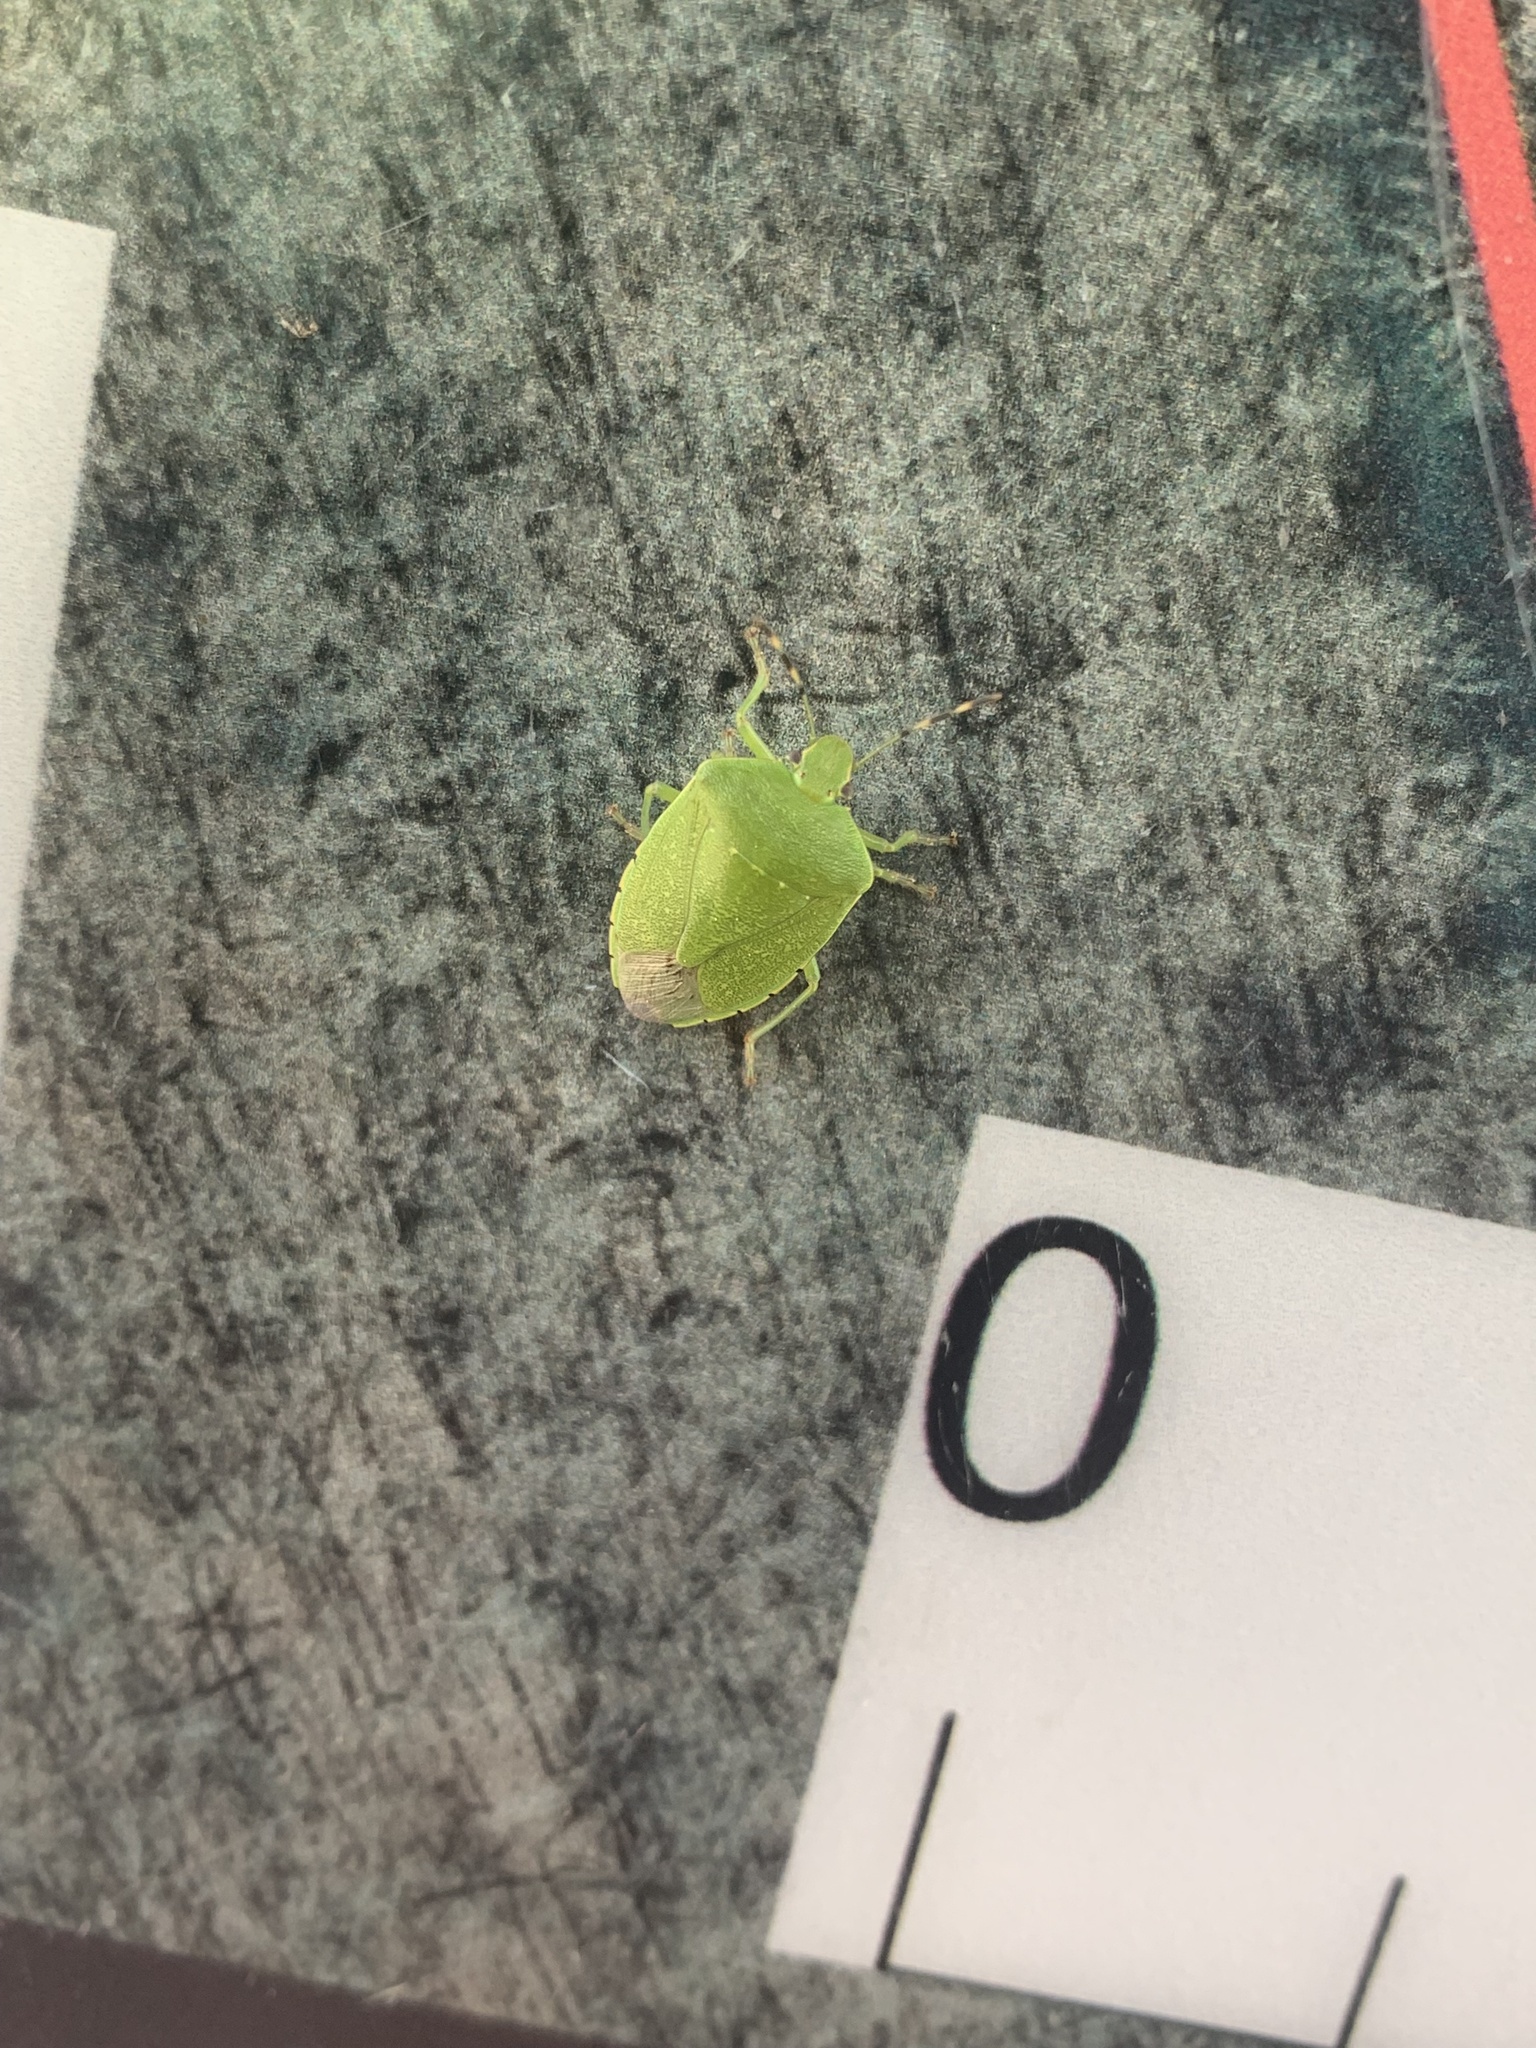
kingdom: Animalia
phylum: Arthropoda
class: Insecta
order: Hemiptera
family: Pentatomidae
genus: Chinavia
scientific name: Chinavia hilaris
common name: Green stink bug
